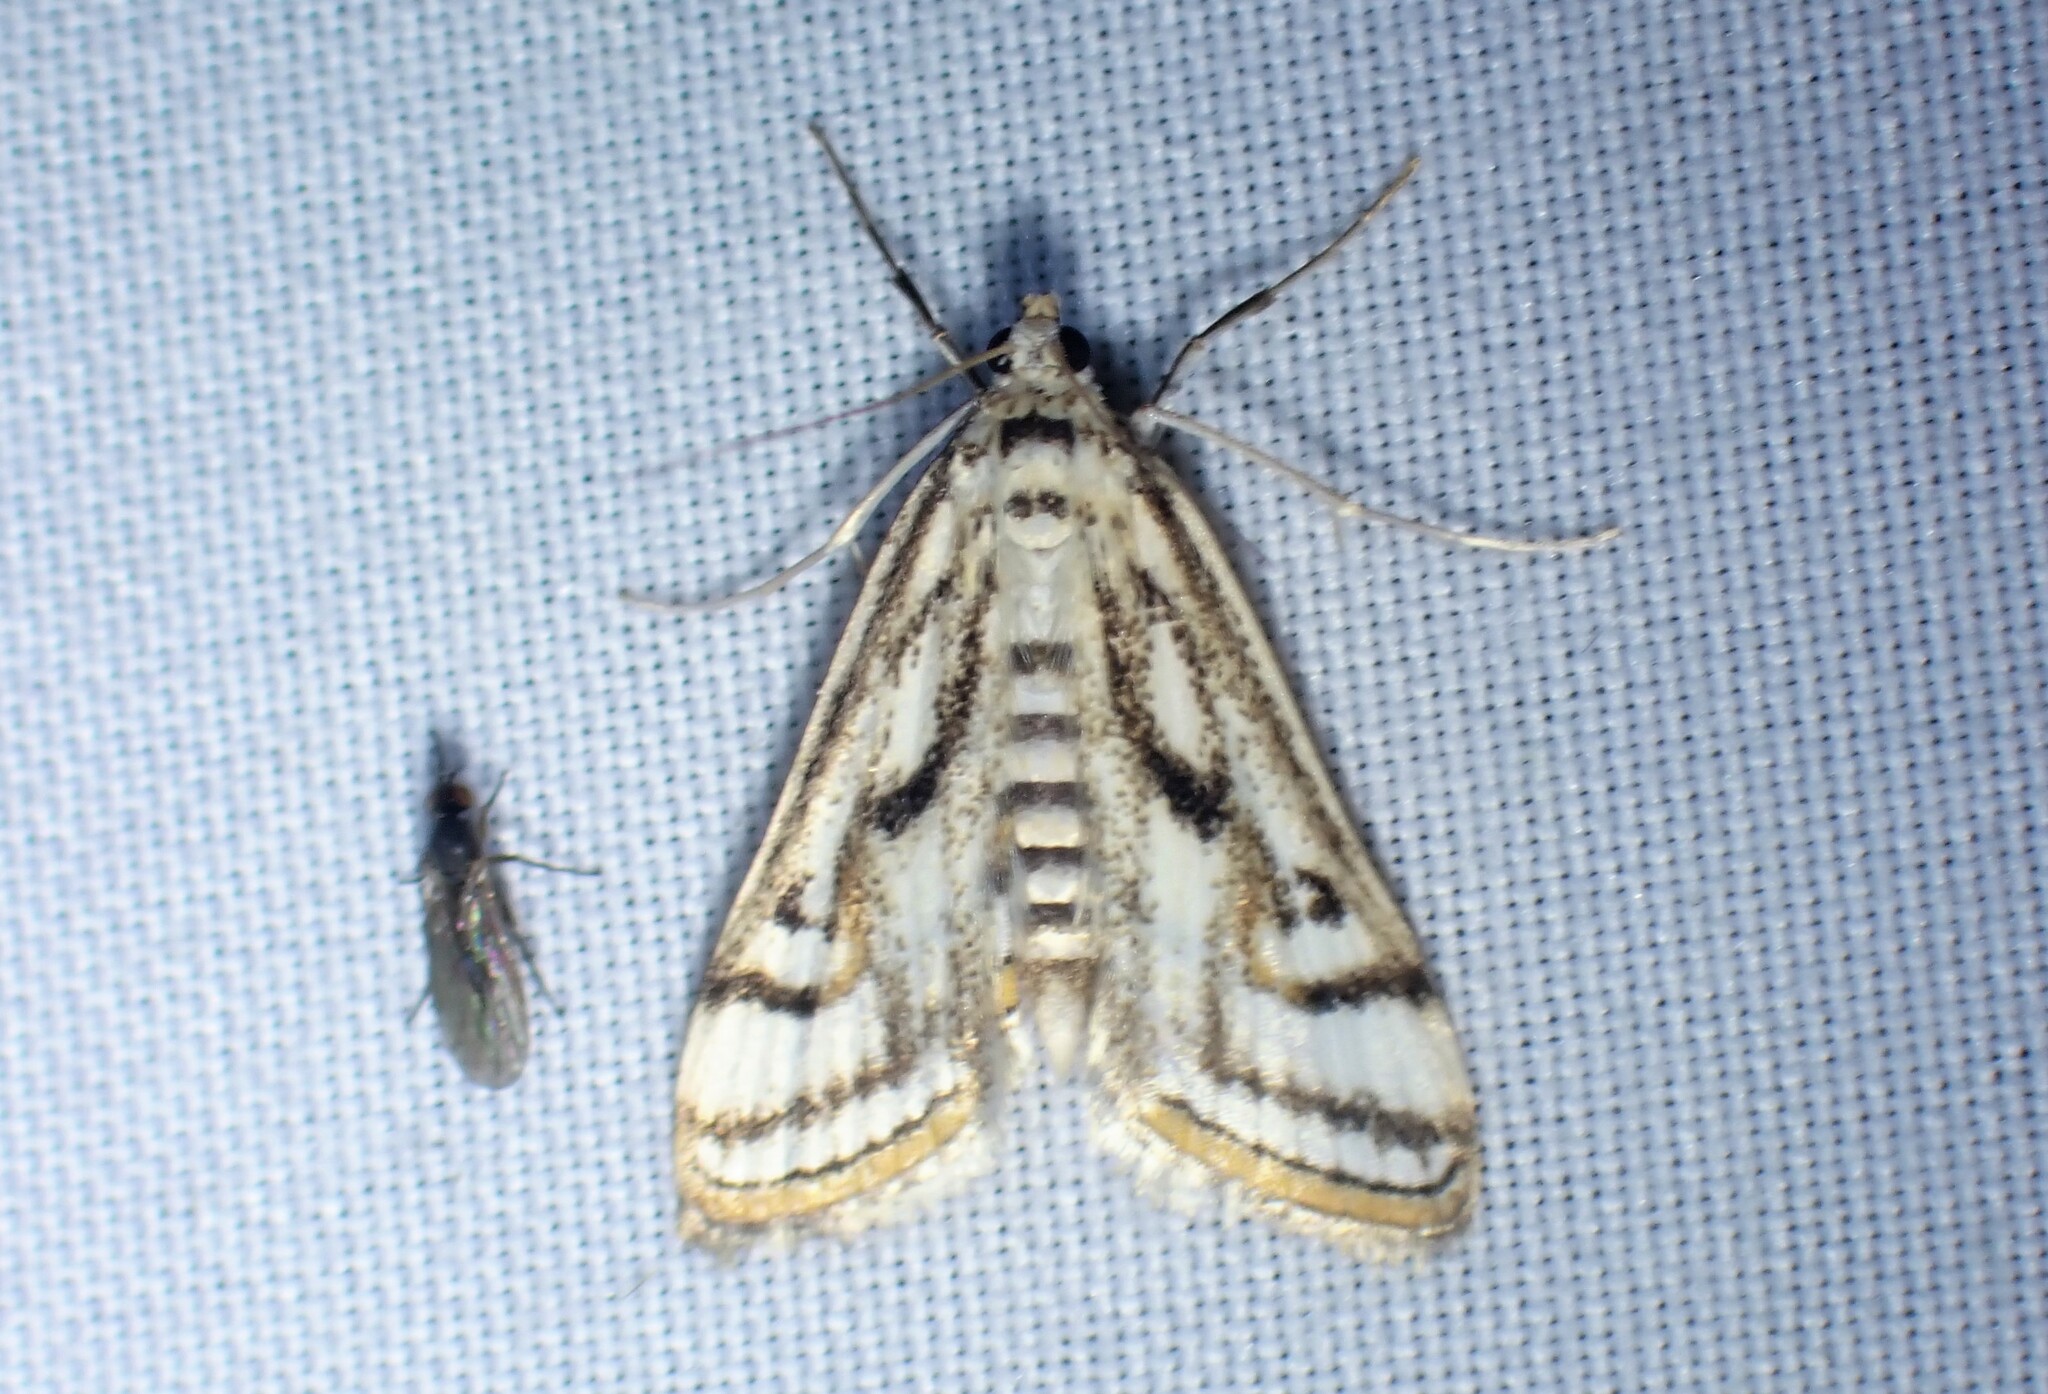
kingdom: Animalia
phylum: Arthropoda
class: Insecta
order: Lepidoptera
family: Crambidae
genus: Parapoynx
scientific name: Parapoynx badiusalis
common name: Chestnut-marked pondweed moth
